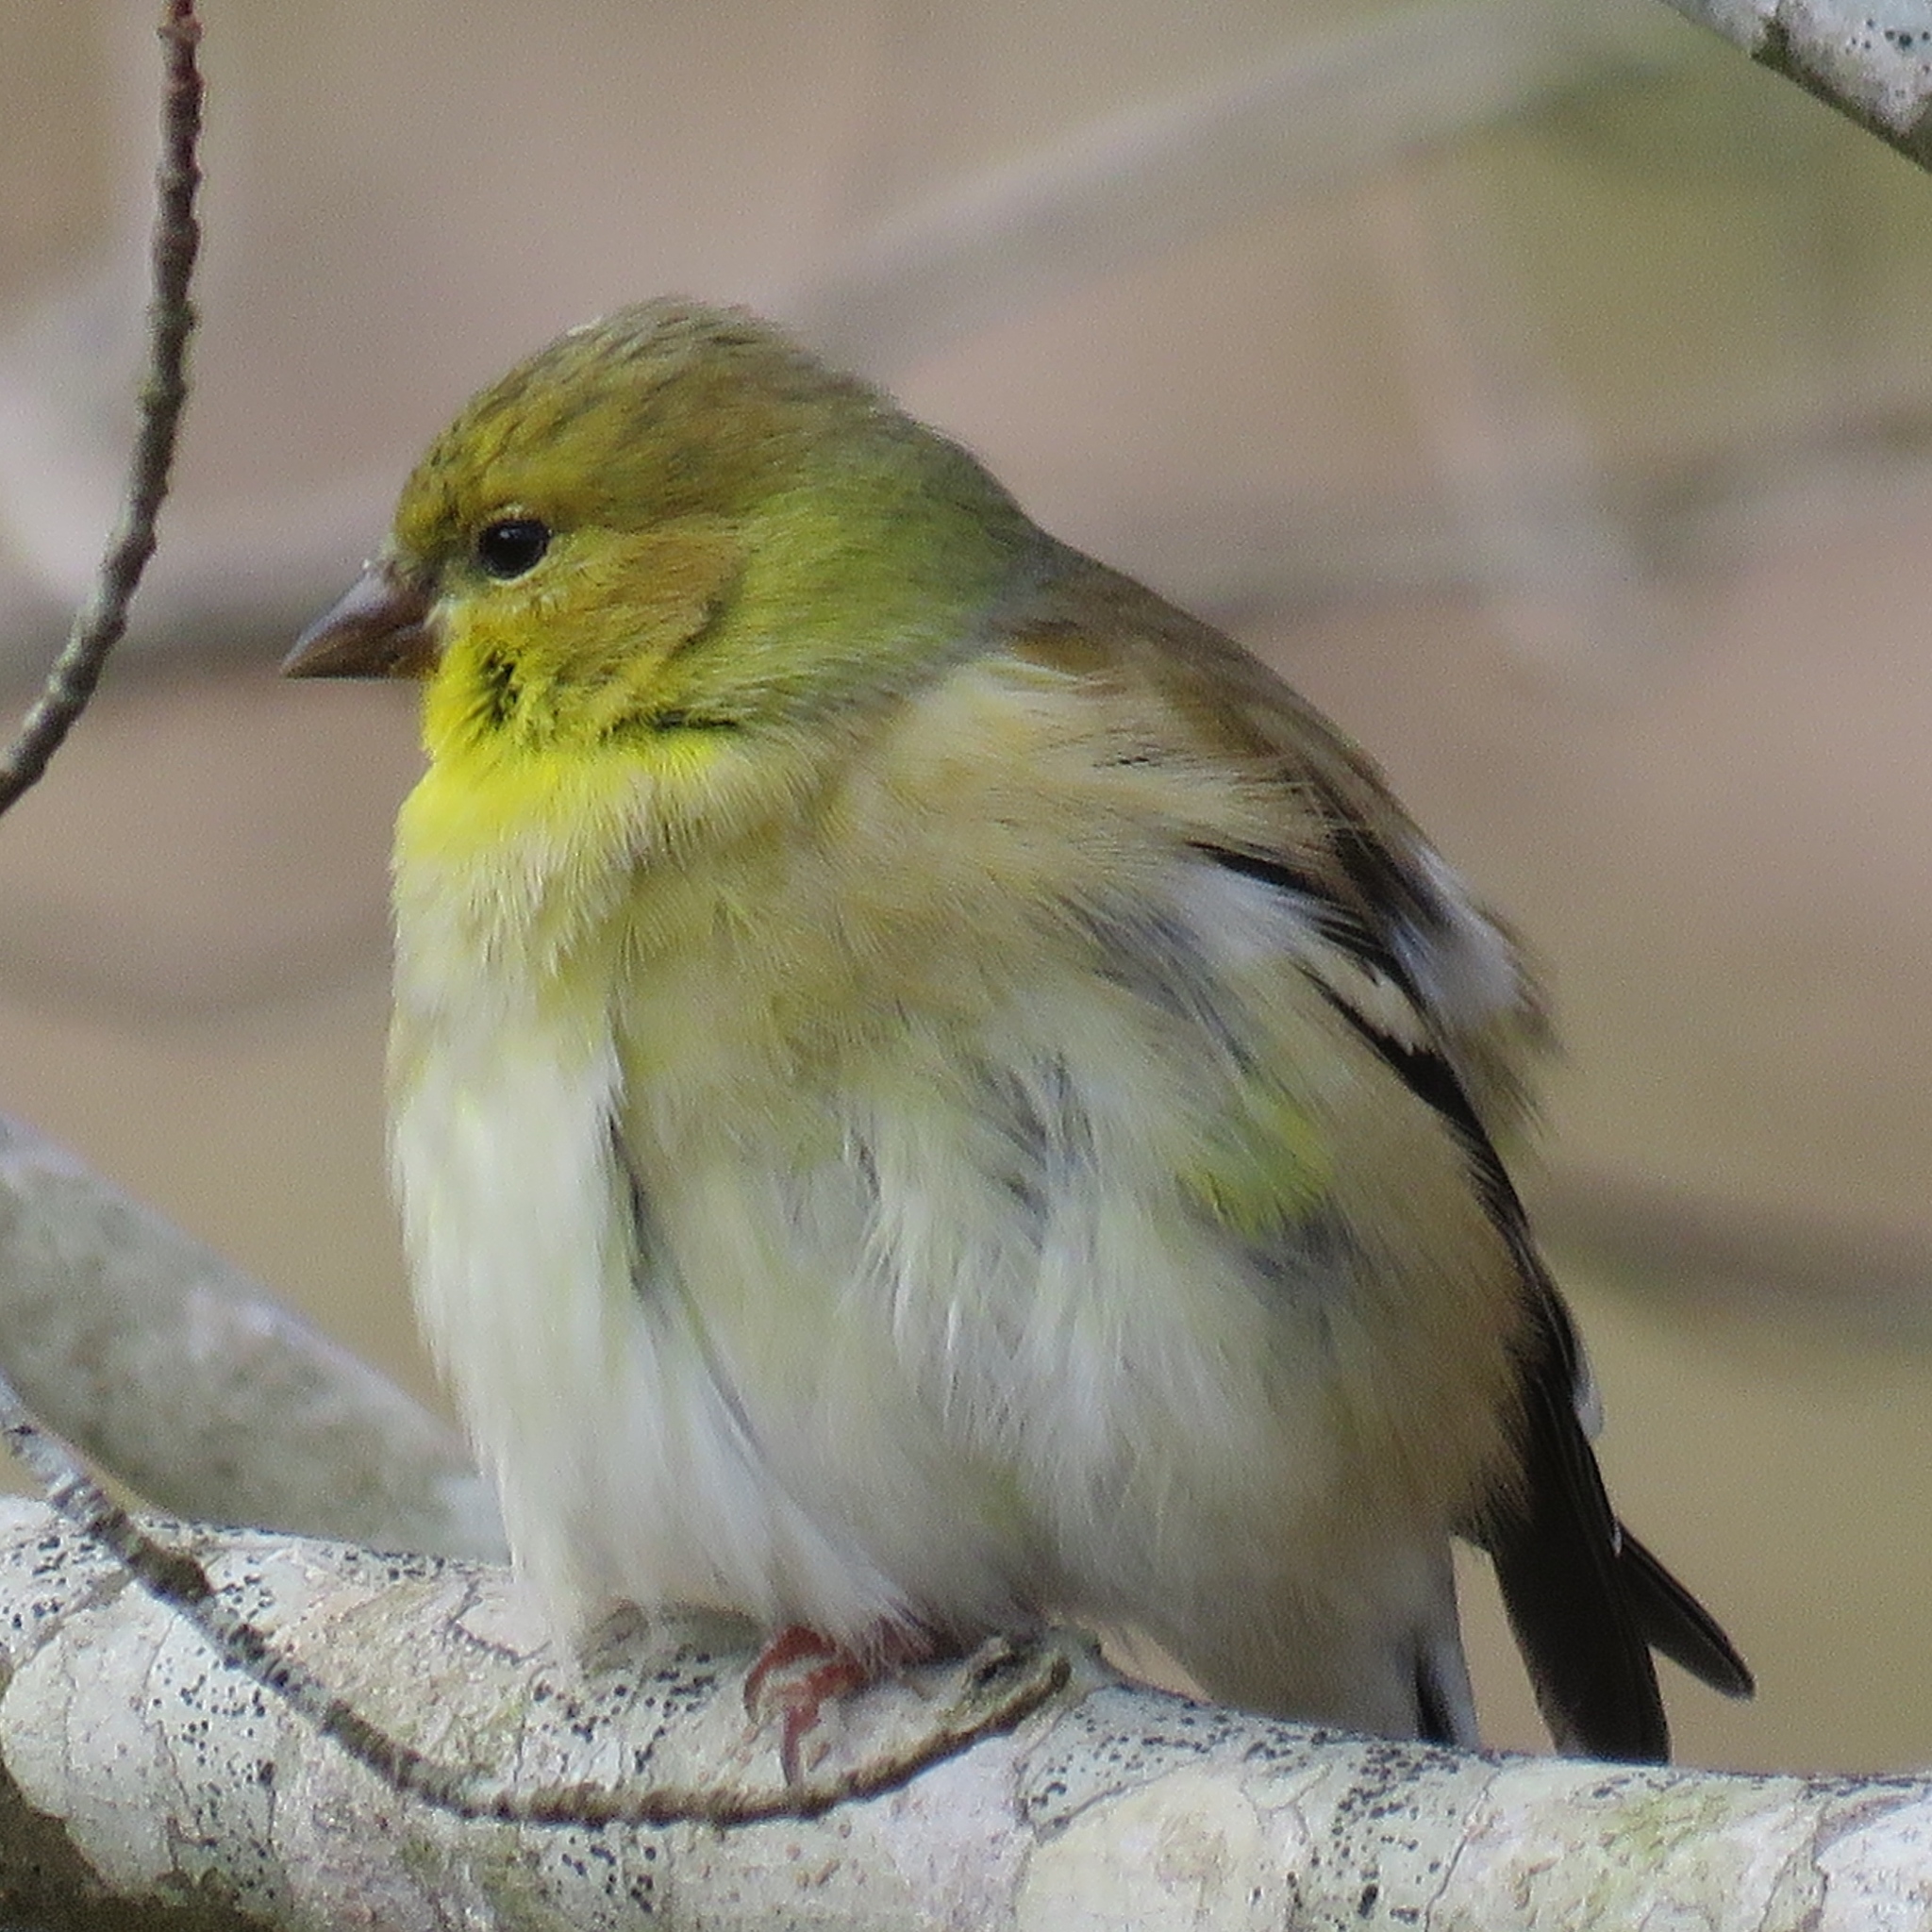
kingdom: Animalia
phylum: Chordata
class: Aves
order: Passeriformes
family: Fringillidae
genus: Spinus
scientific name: Spinus tristis
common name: American goldfinch
